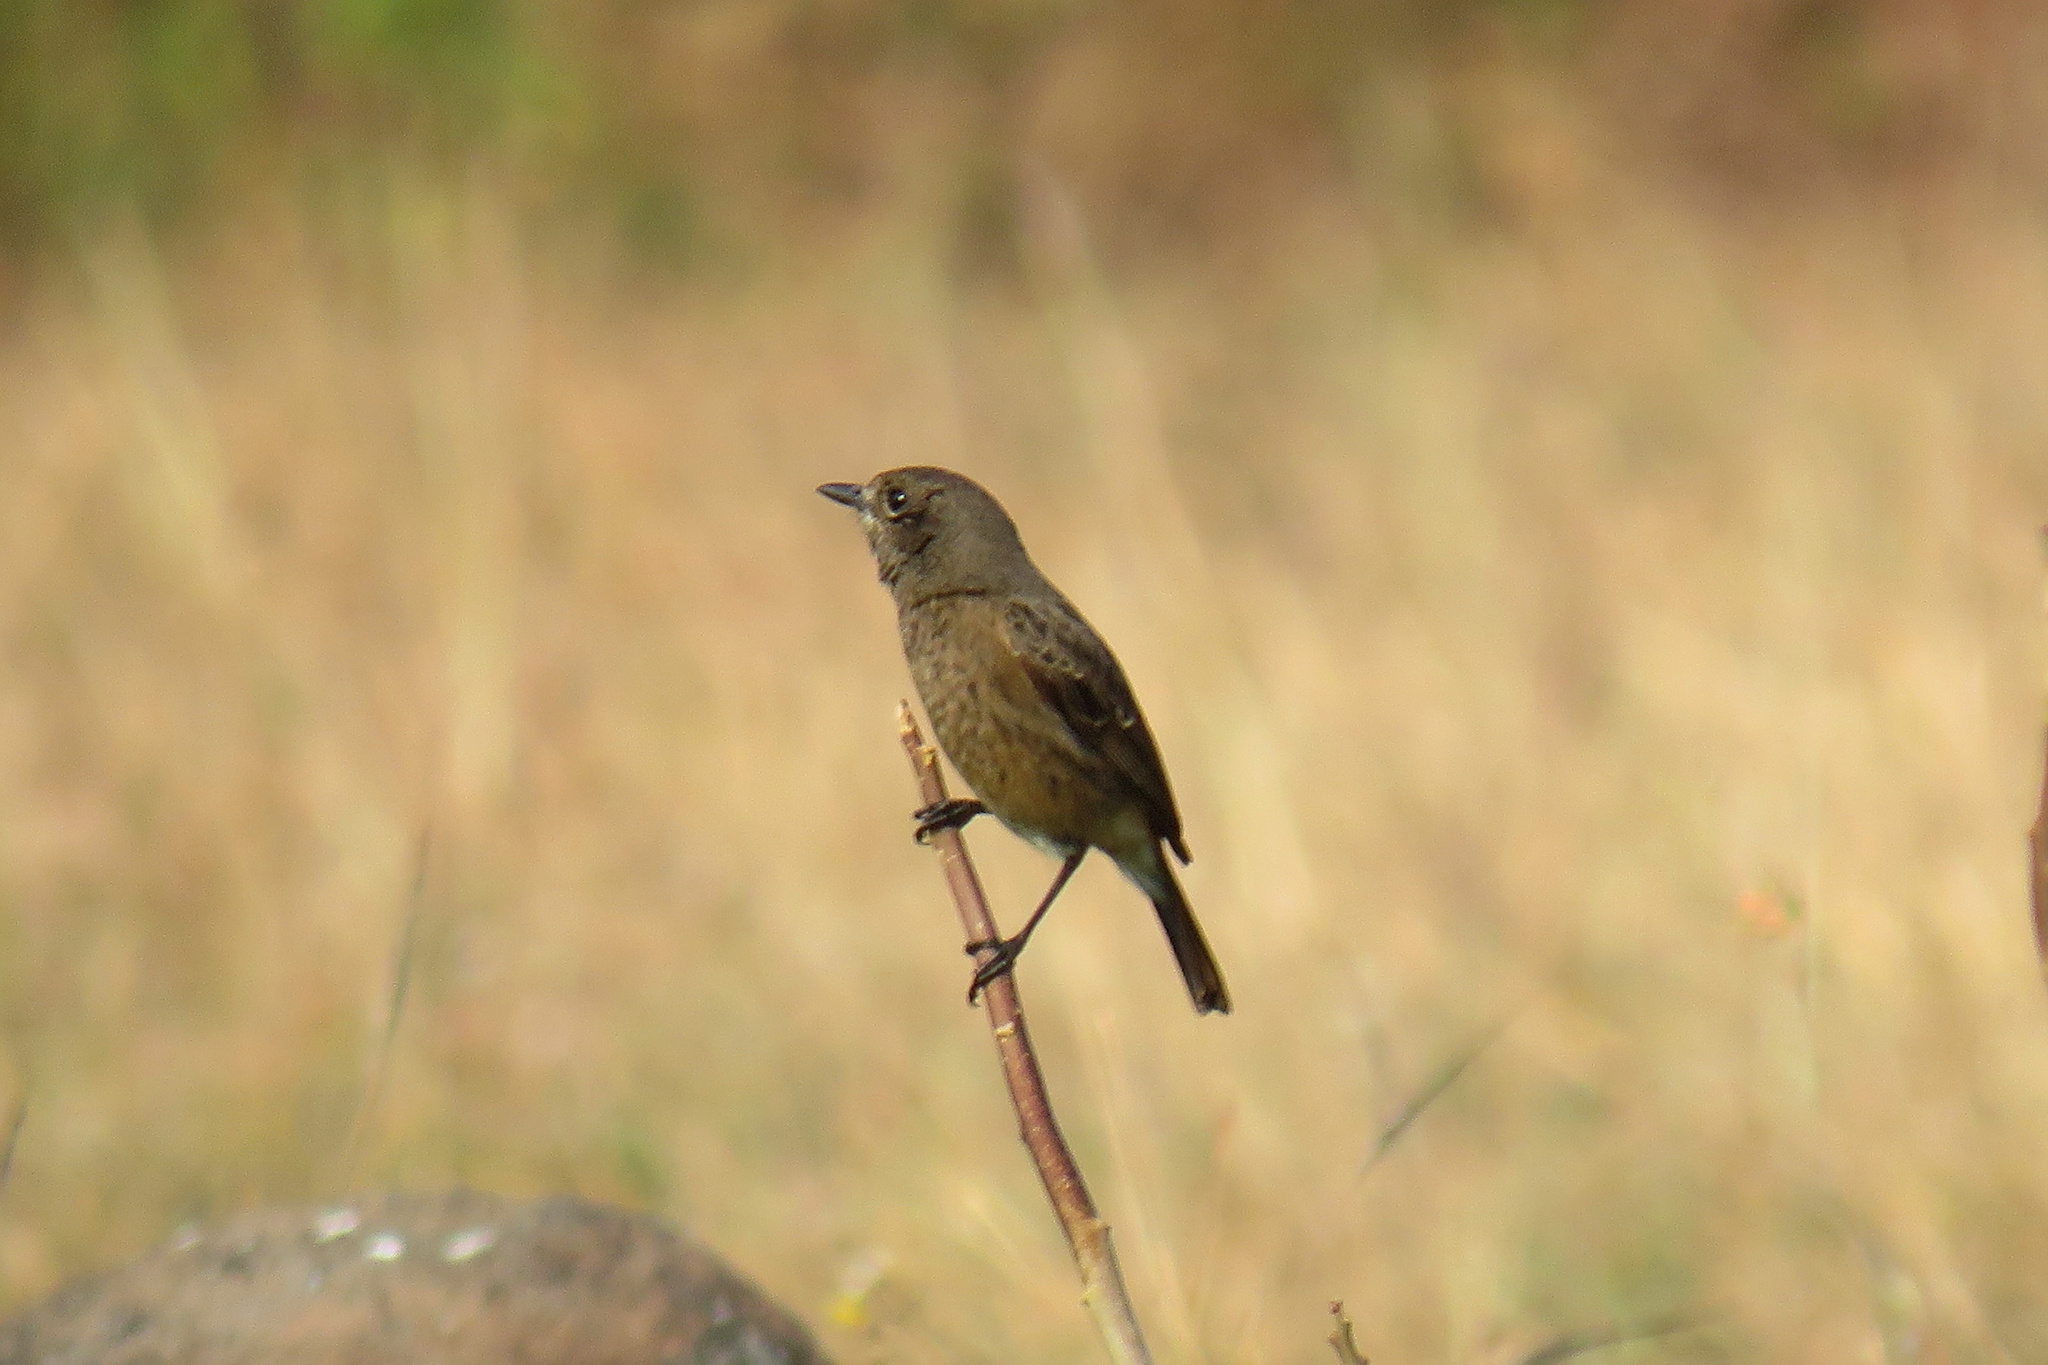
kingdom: Animalia
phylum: Chordata
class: Aves
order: Passeriformes
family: Muscicapidae
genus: Saxicola
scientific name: Saxicola caprata
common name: Pied bush chat
